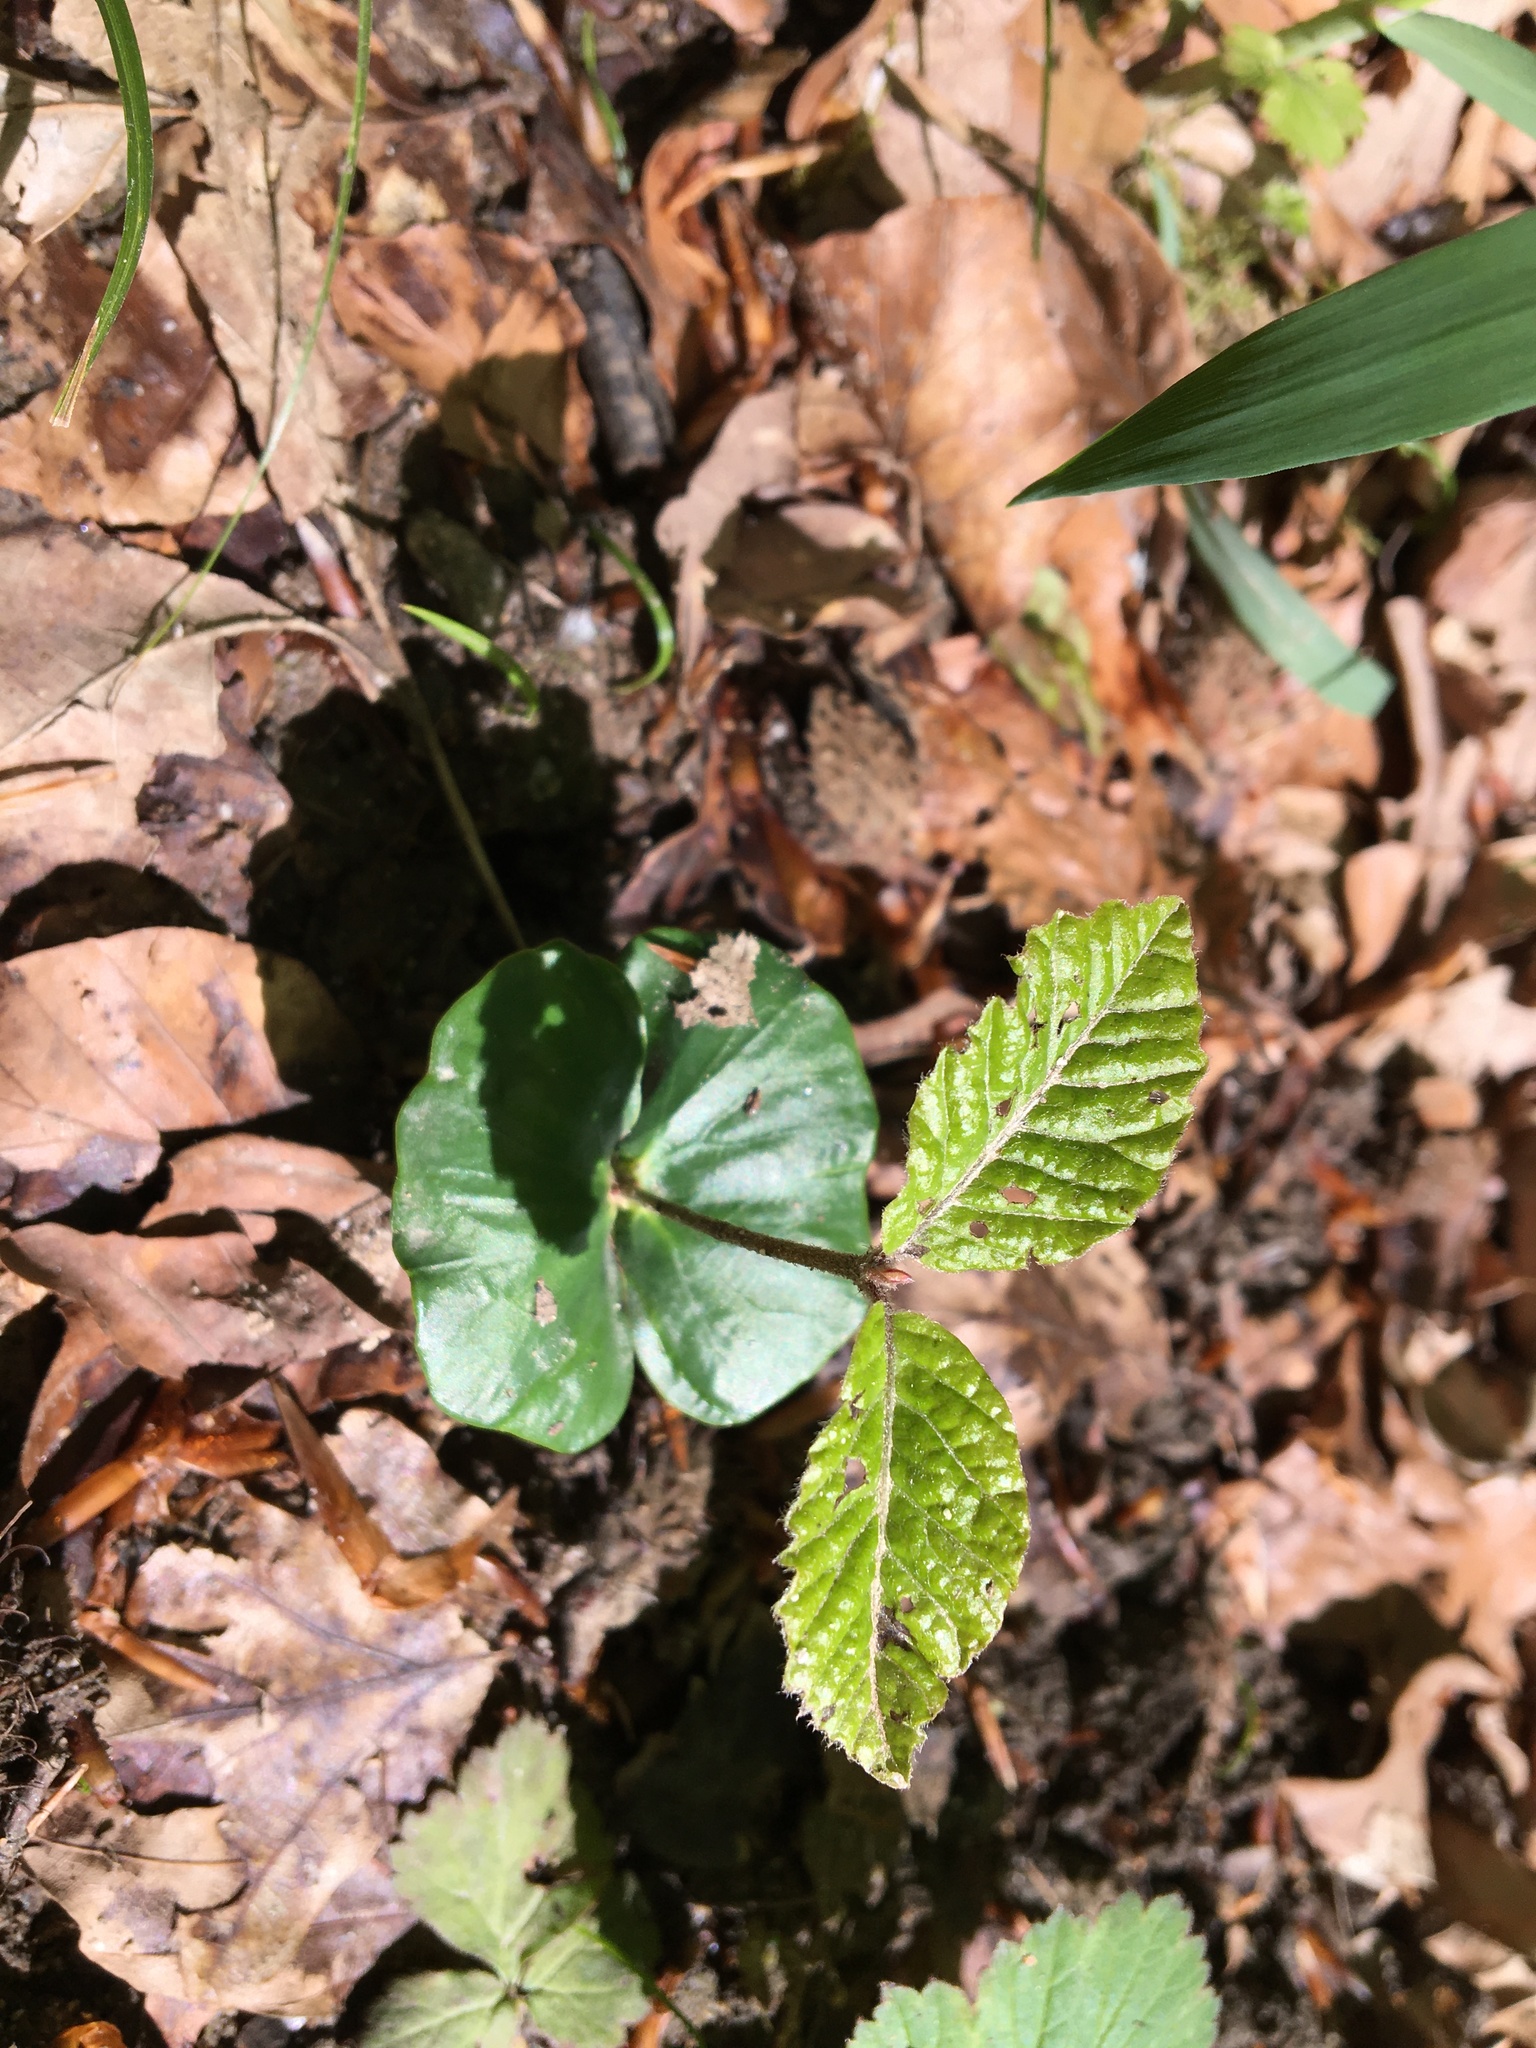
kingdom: Plantae
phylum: Tracheophyta
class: Magnoliopsida
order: Fagales
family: Fagaceae
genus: Fagus
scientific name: Fagus sylvatica
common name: Beech
